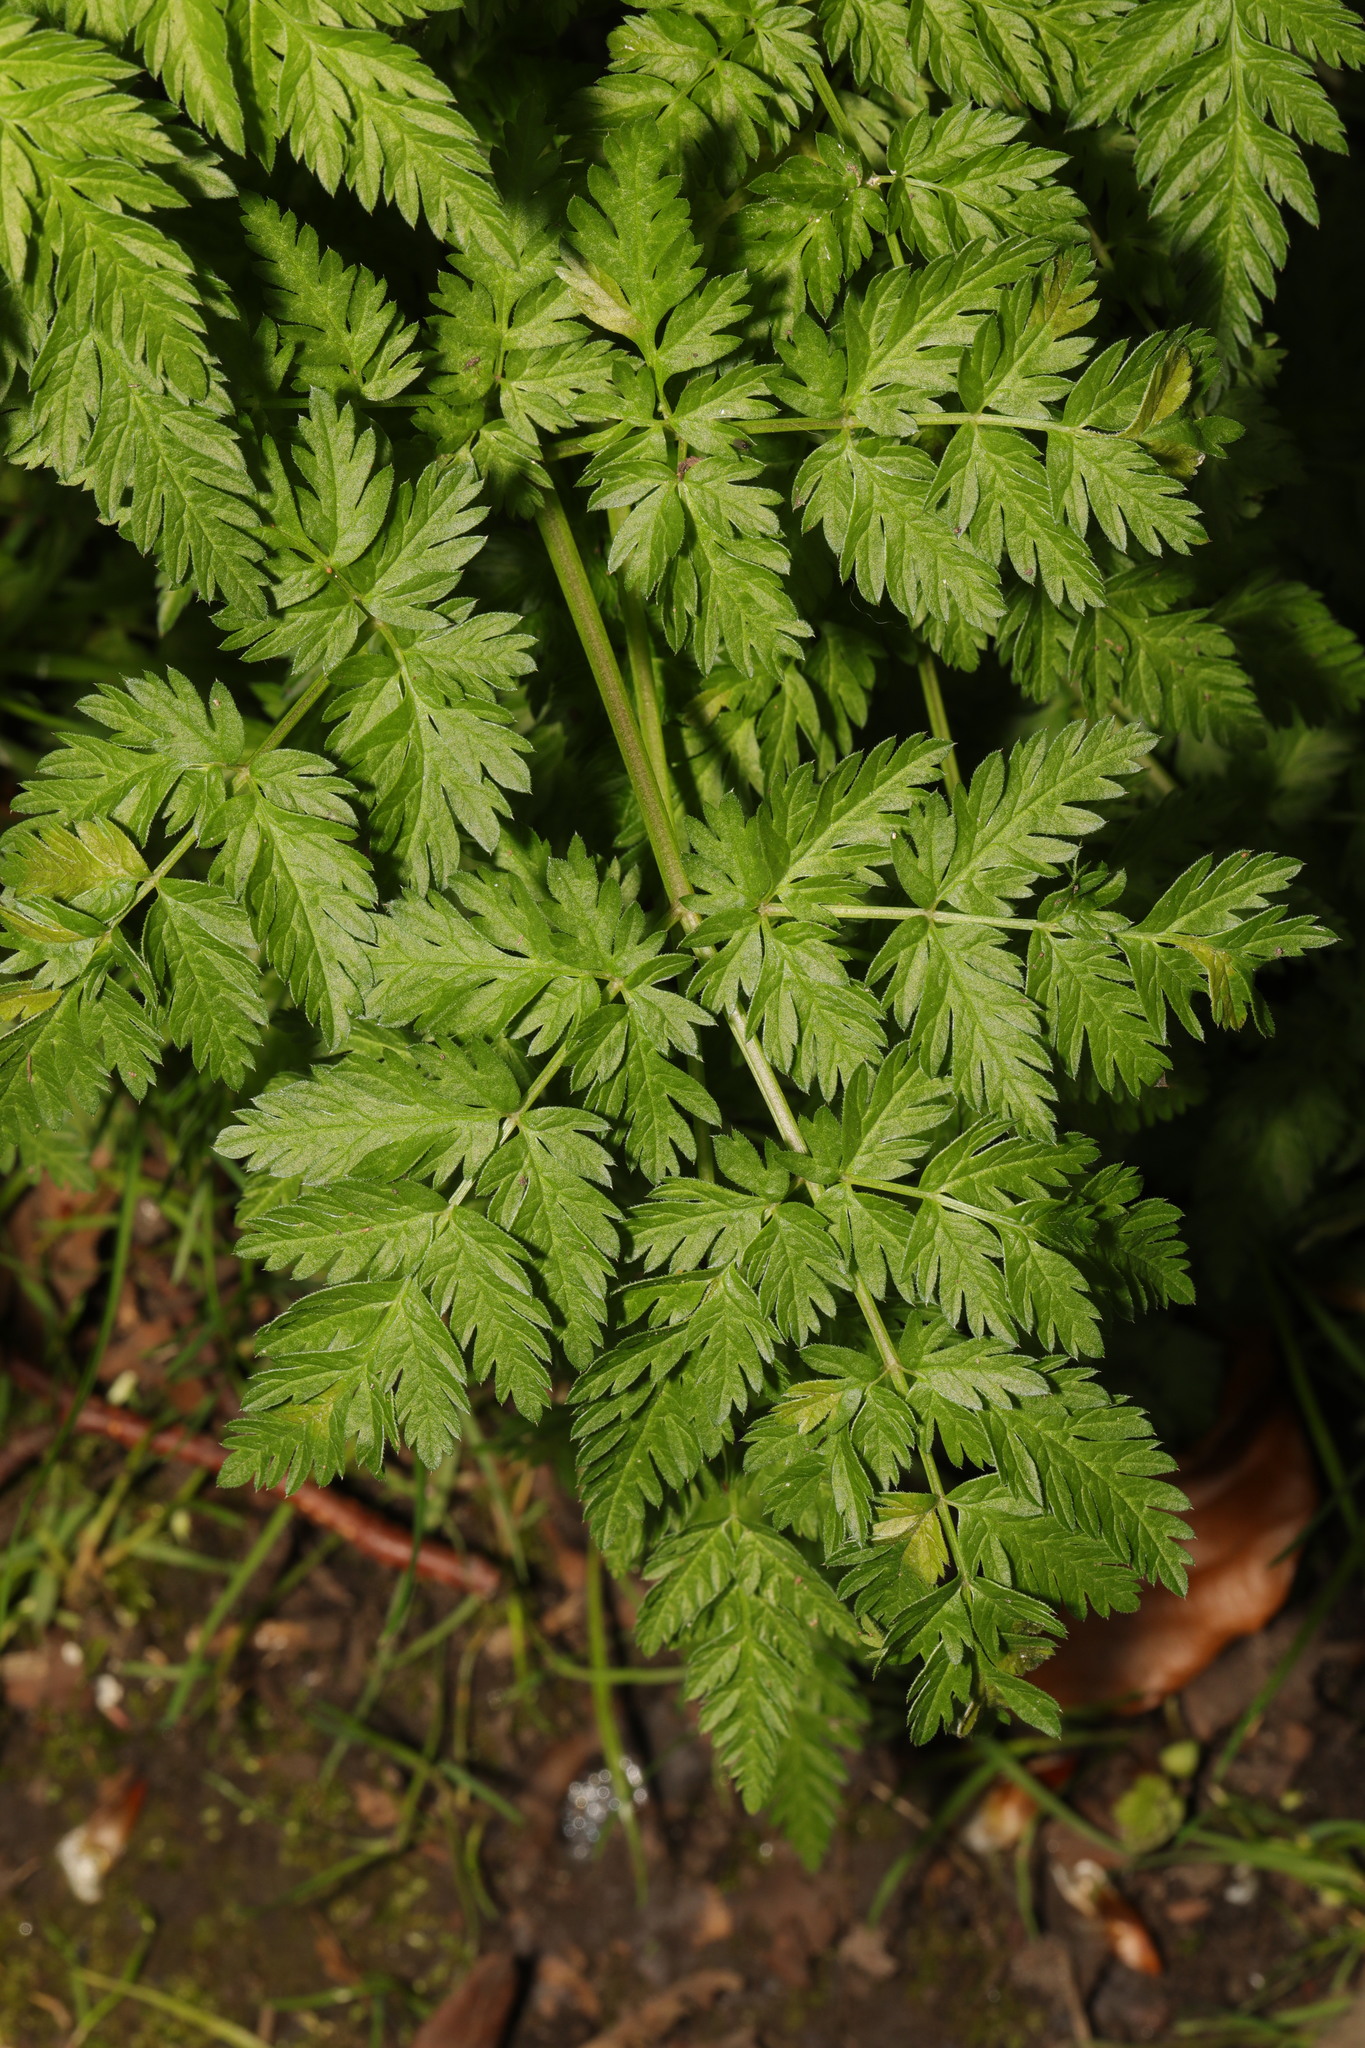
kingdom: Plantae
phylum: Tracheophyta
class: Magnoliopsida
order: Apiales
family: Apiaceae
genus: Anthriscus
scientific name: Anthriscus sylvestris
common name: Cow parsley
